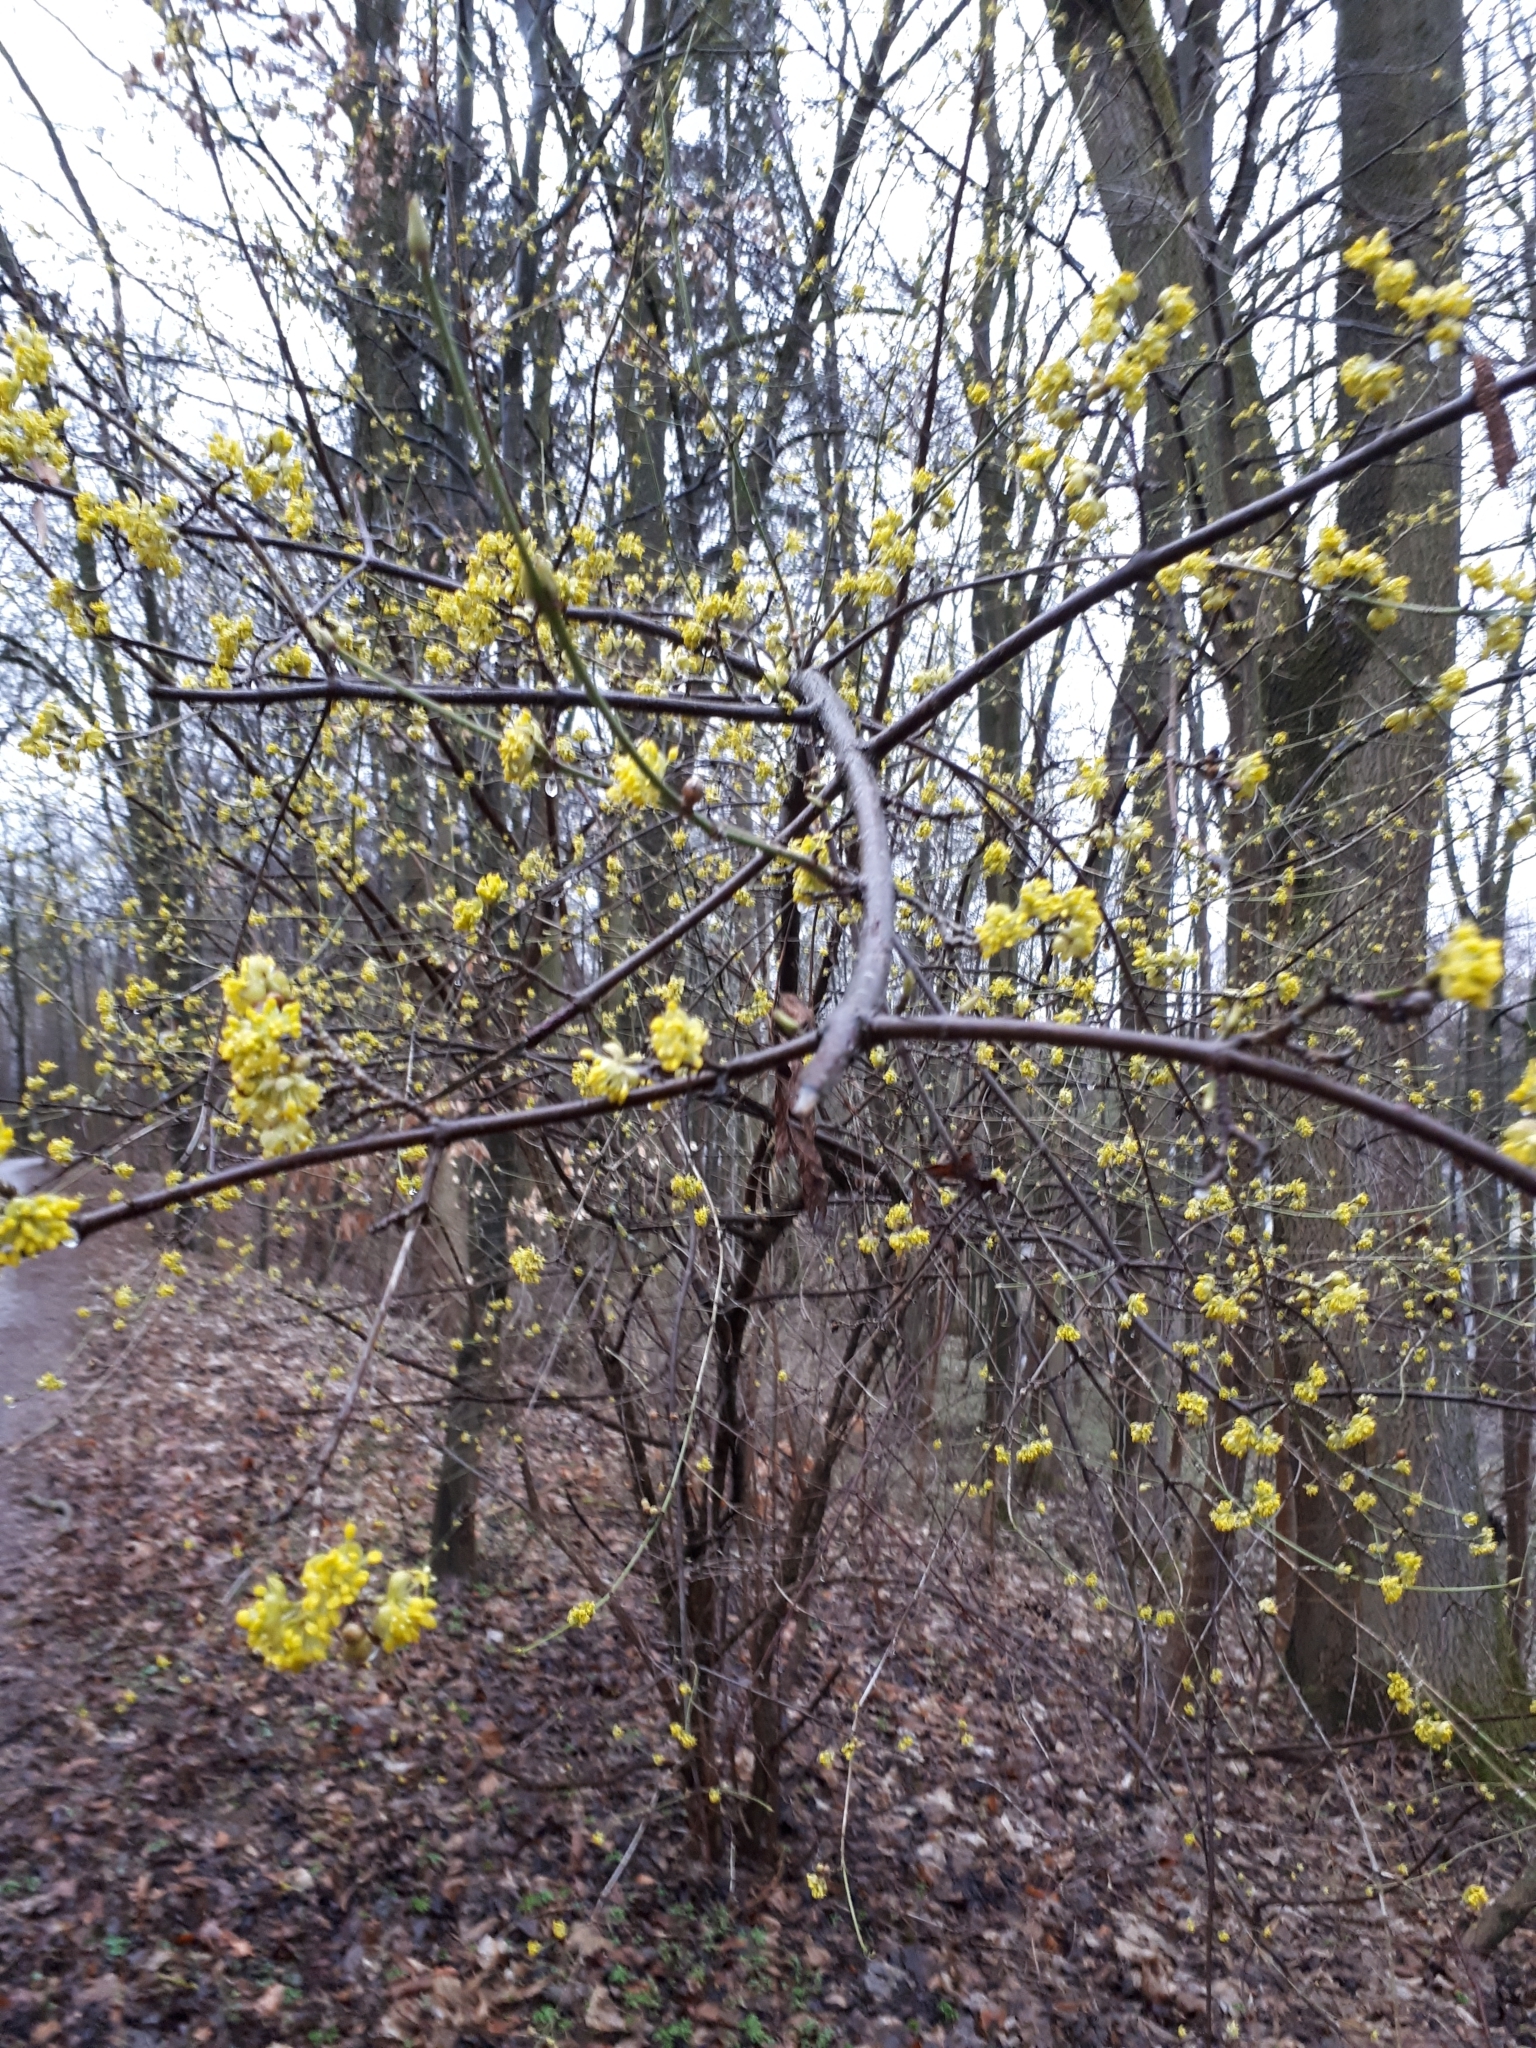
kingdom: Plantae
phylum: Tracheophyta
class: Magnoliopsida
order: Cornales
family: Cornaceae
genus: Cornus
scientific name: Cornus mas
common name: Cornelian-cherry
